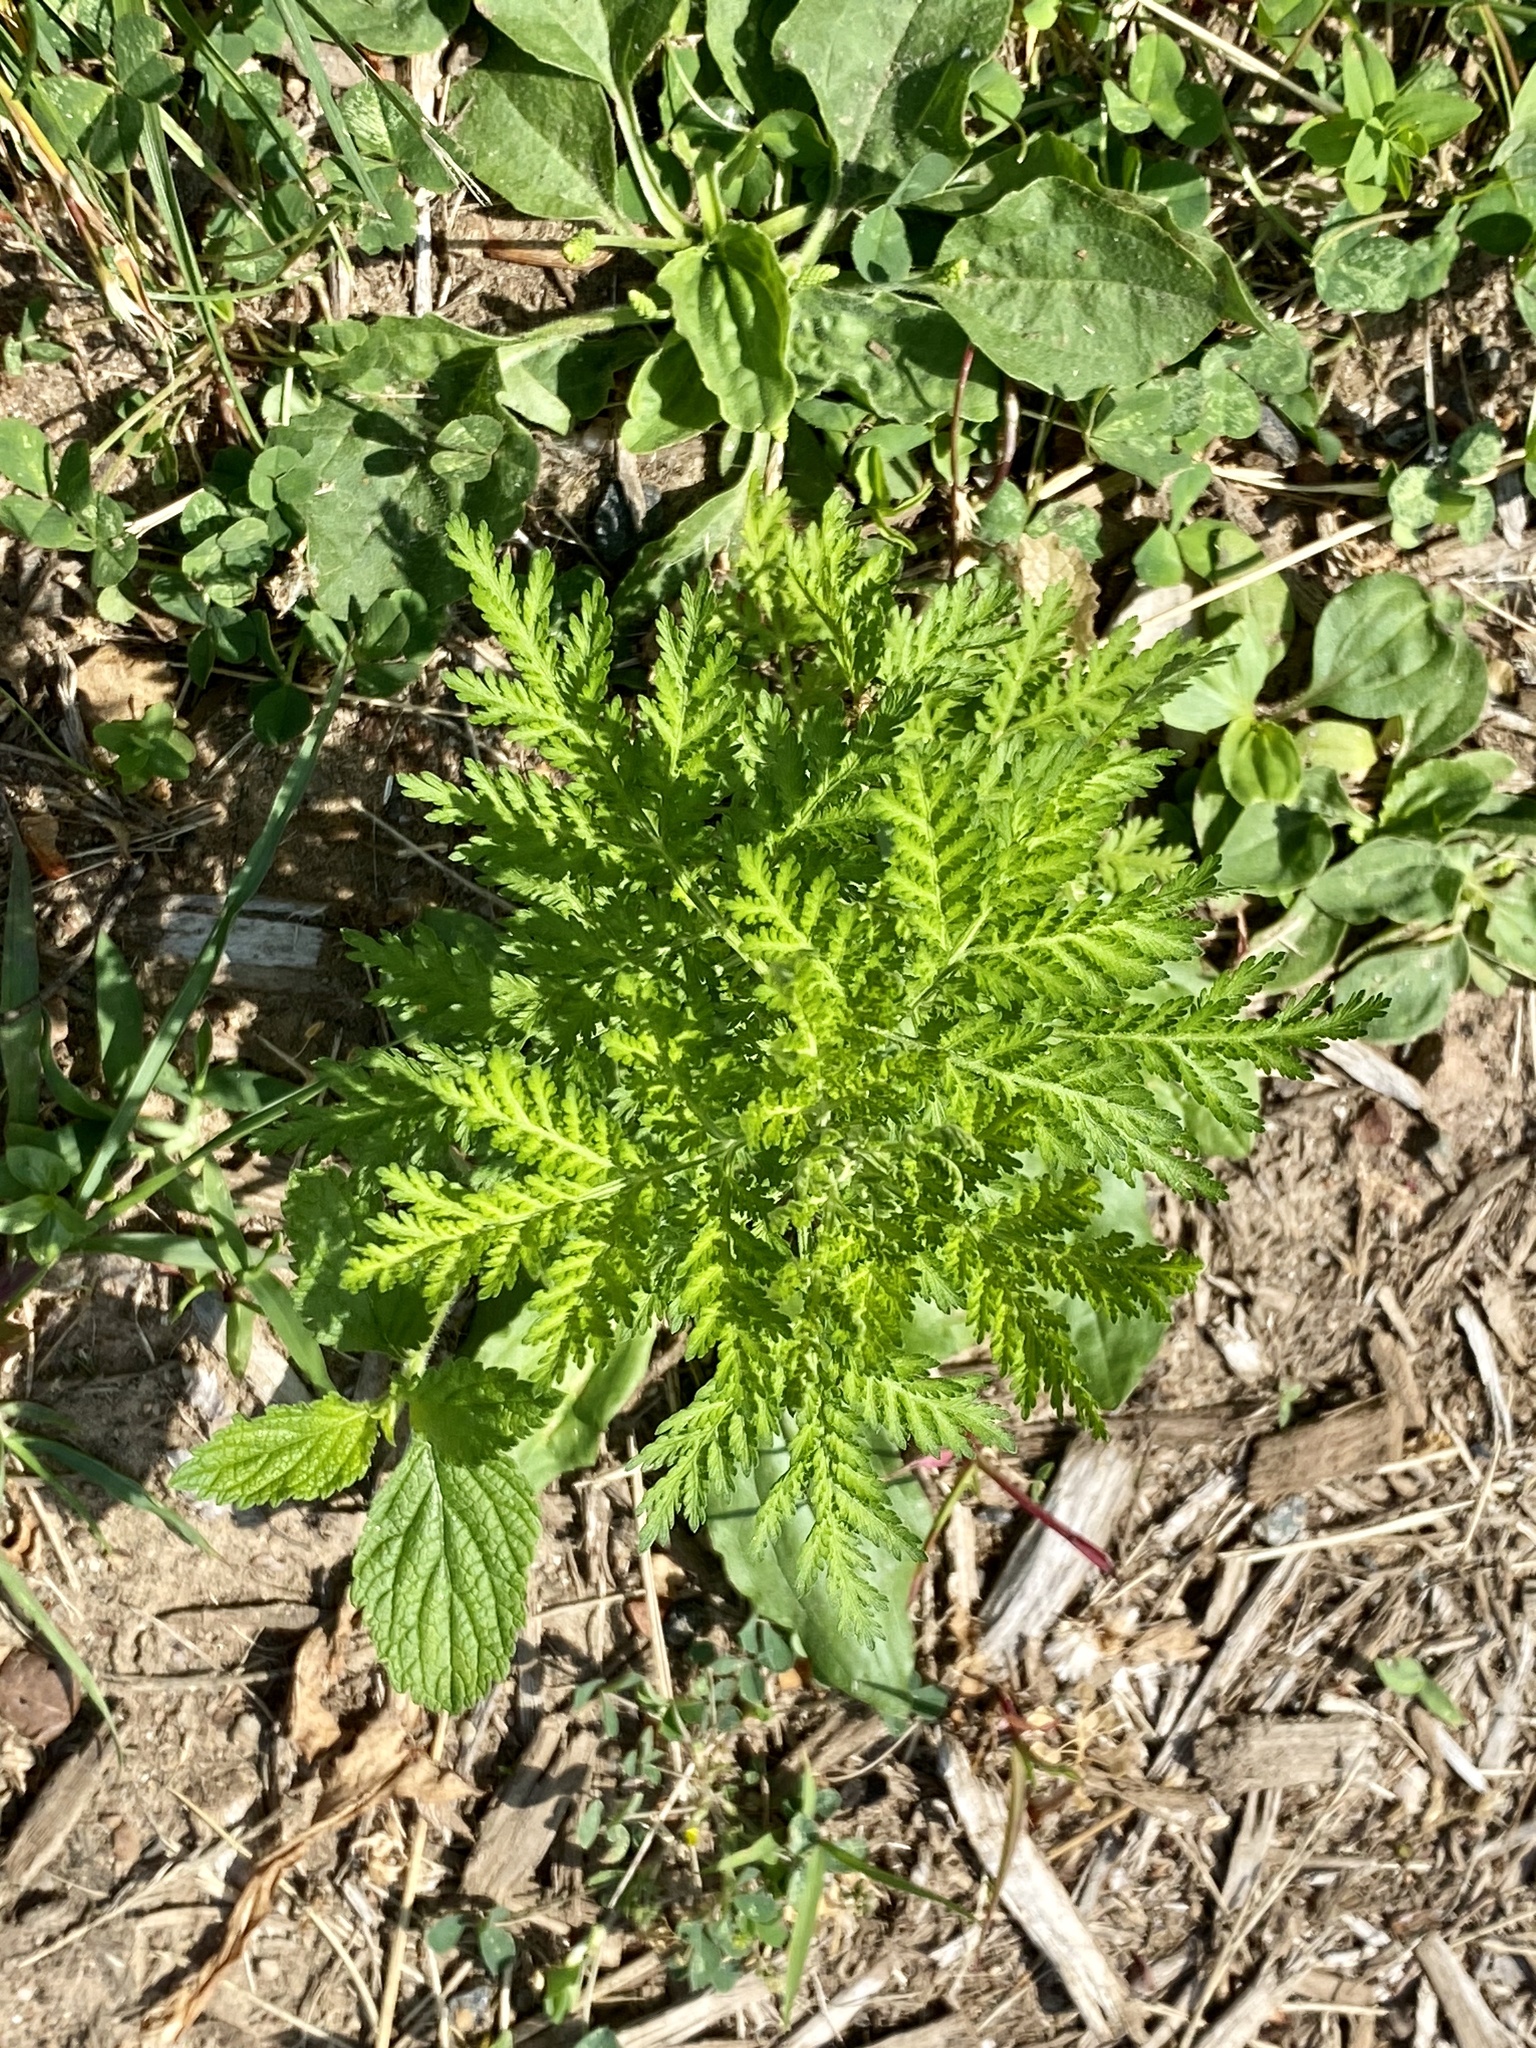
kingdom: Plantae
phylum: Tracheophyta
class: Magnoliopsida
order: Asterales
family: Asteraceae
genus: Artemisia
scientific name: Artemisia annua
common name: Sweet sagewort
